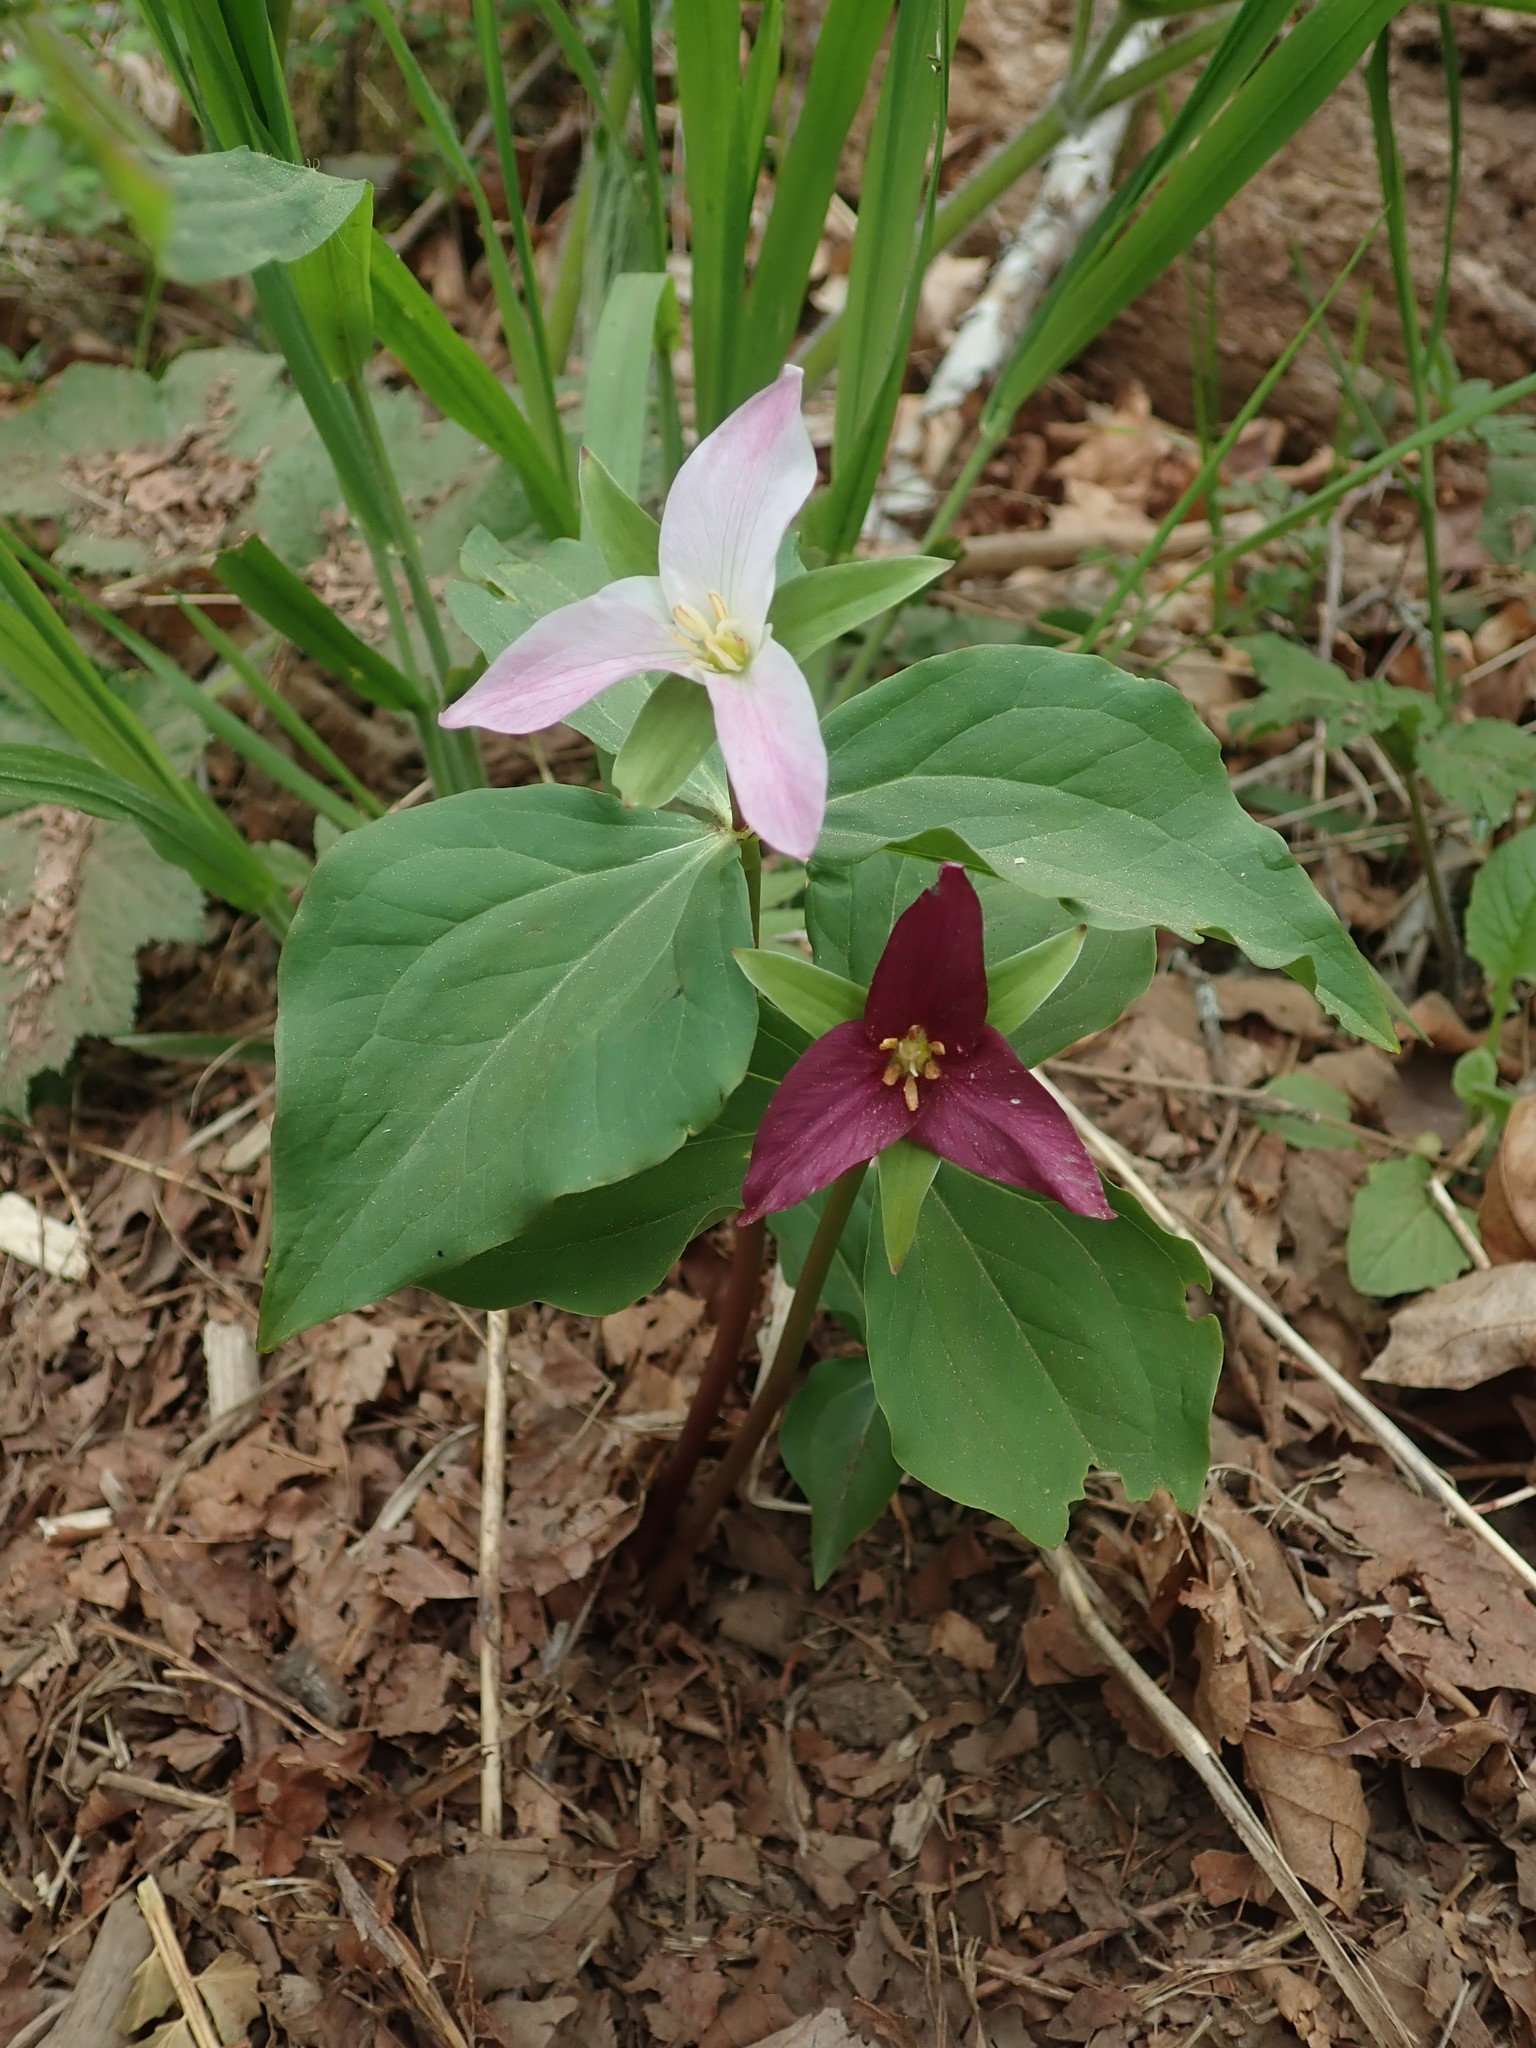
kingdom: Plantae
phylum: Tracheophyta
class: Liliopsida
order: Liliales
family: Melanthiaceae
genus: Trillium
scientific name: Trillium ovatum
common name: Pacific trillium
